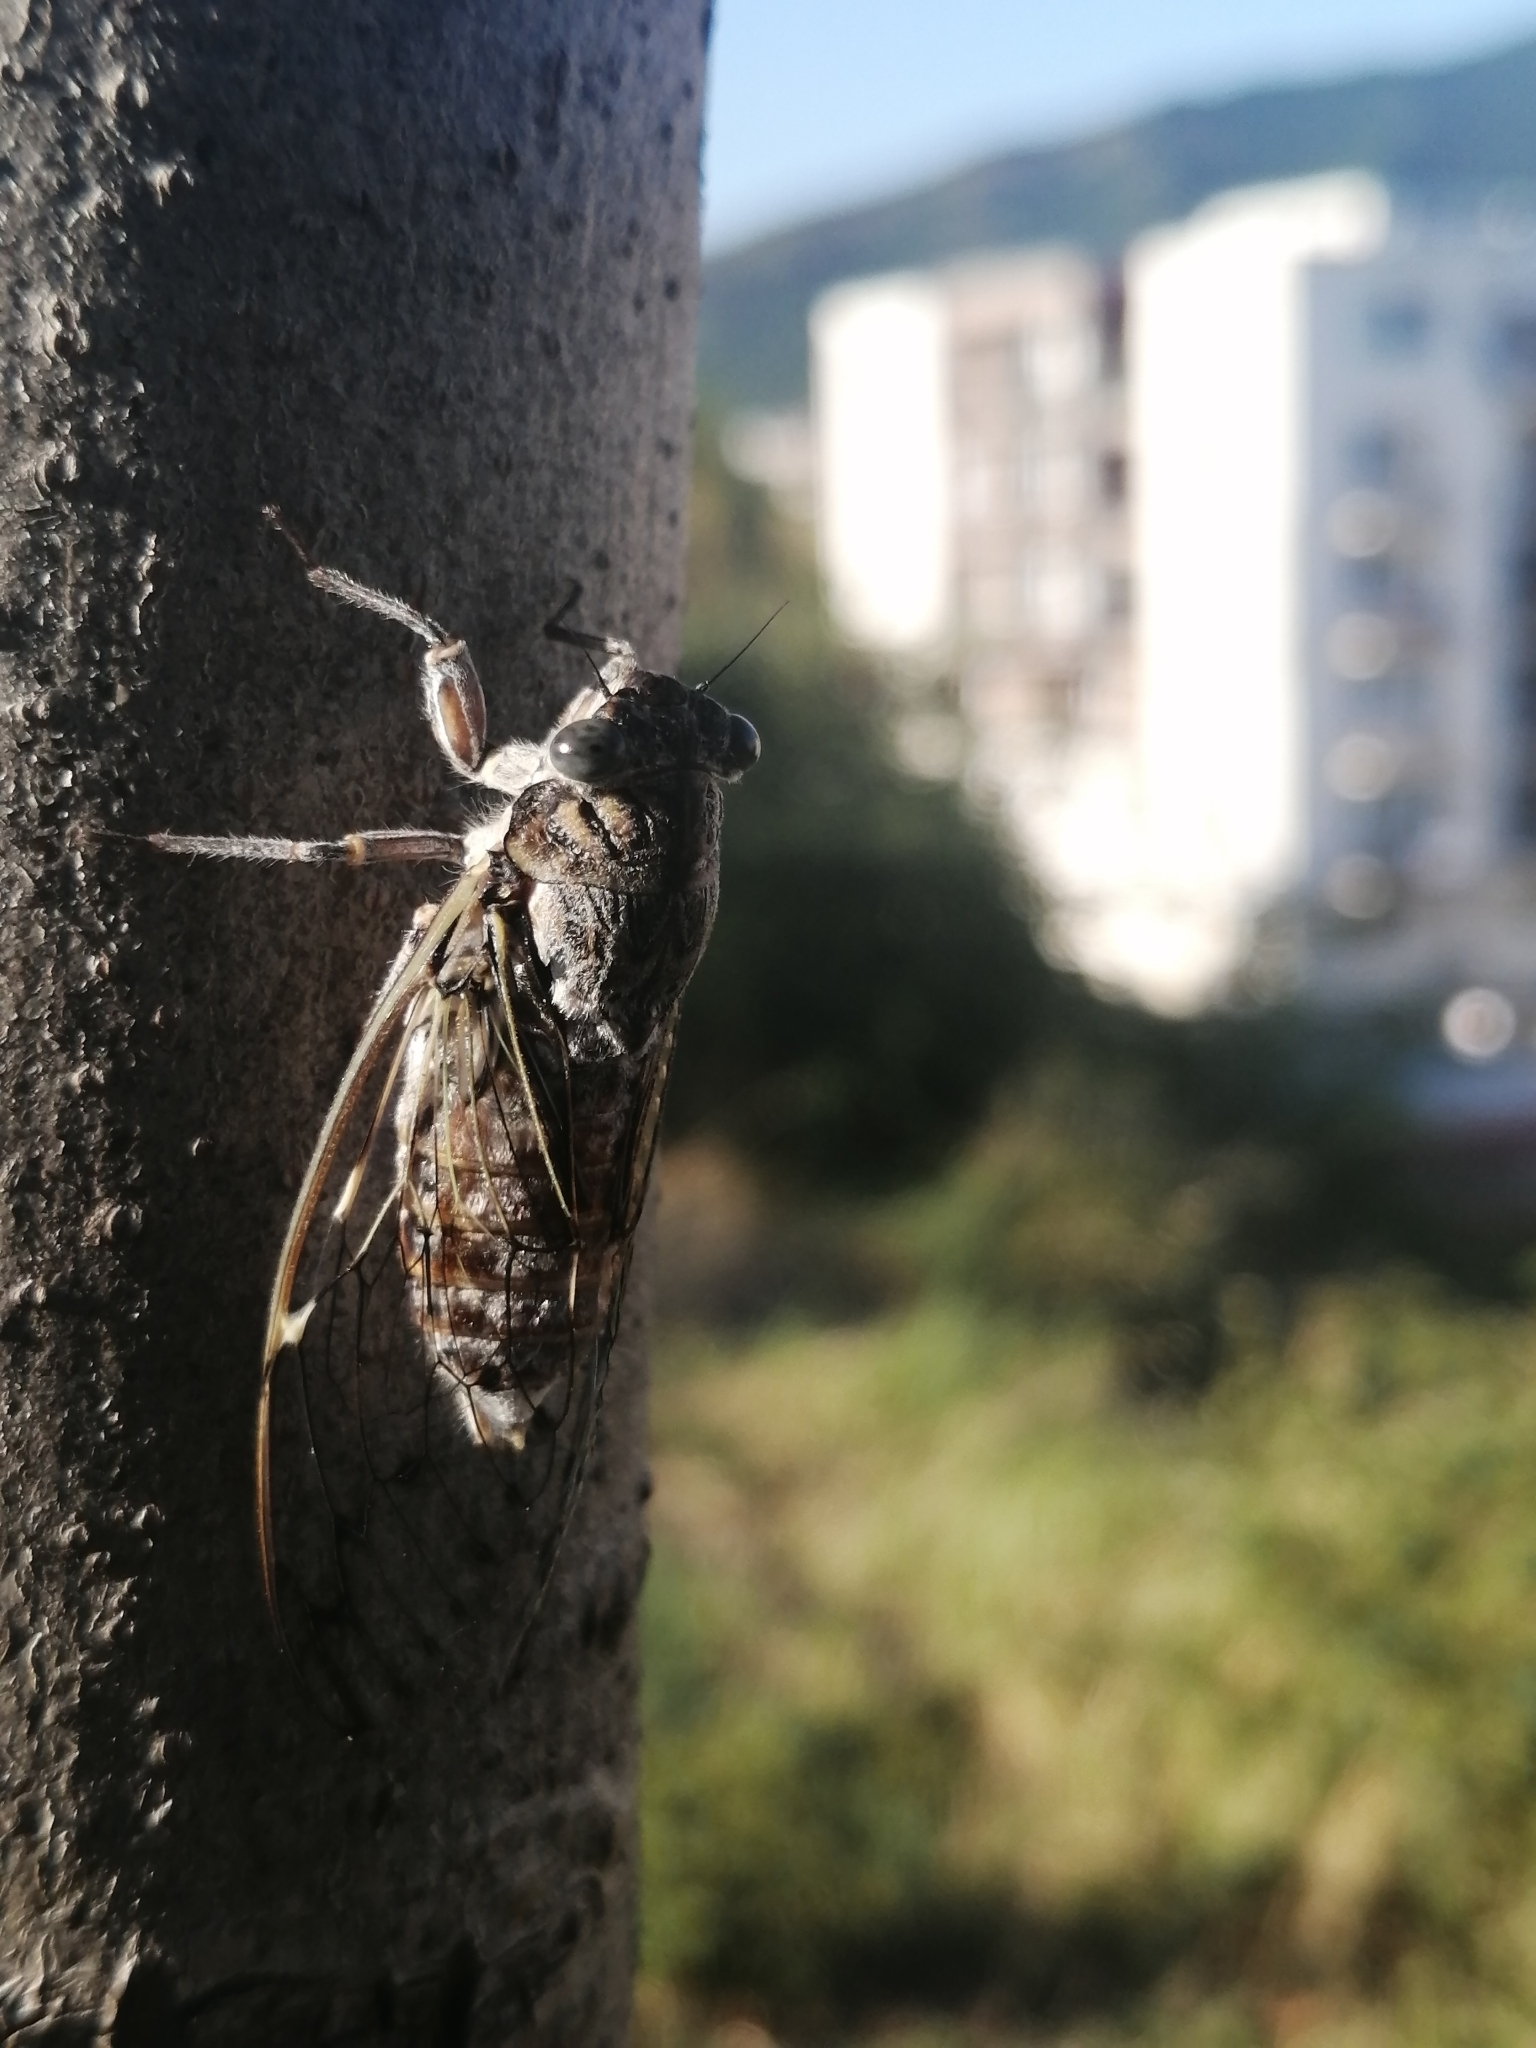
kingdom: Animalia
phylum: Arthropoda
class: Insecta
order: Hemiptera
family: Cicadidae
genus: Cicada
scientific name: Cicada orni
